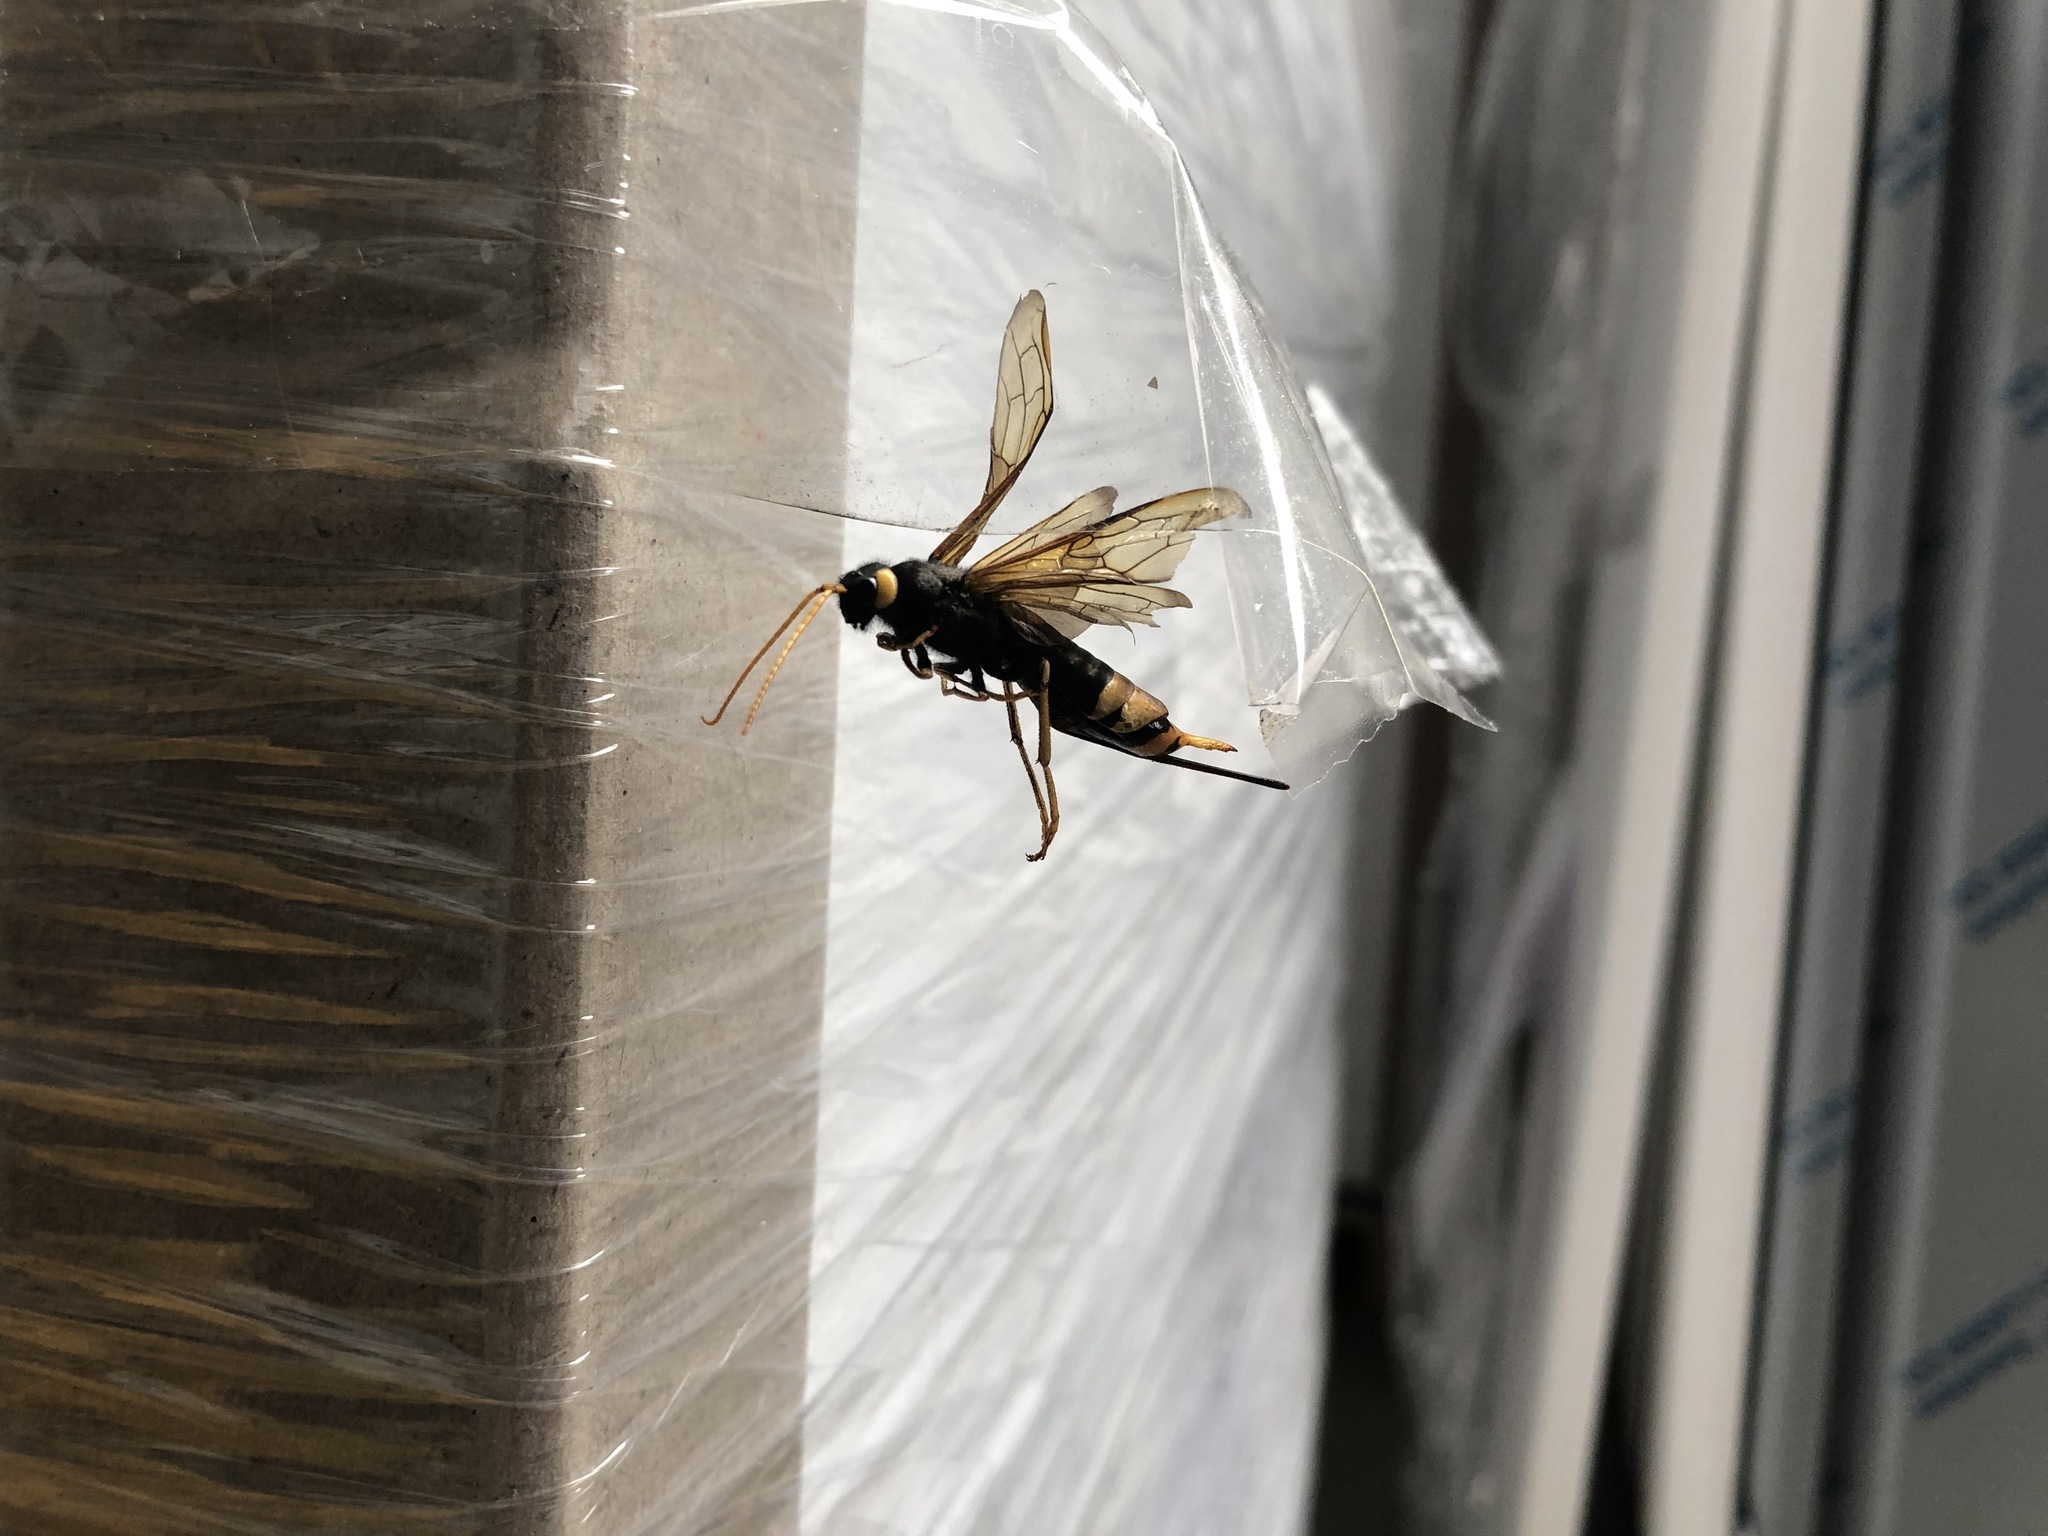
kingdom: Animalia
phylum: Arthropoda
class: Insecta
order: Hymenoptera
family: Siricidae
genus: Urocerus
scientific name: Urocerus gigas
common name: Giant woodwasp
